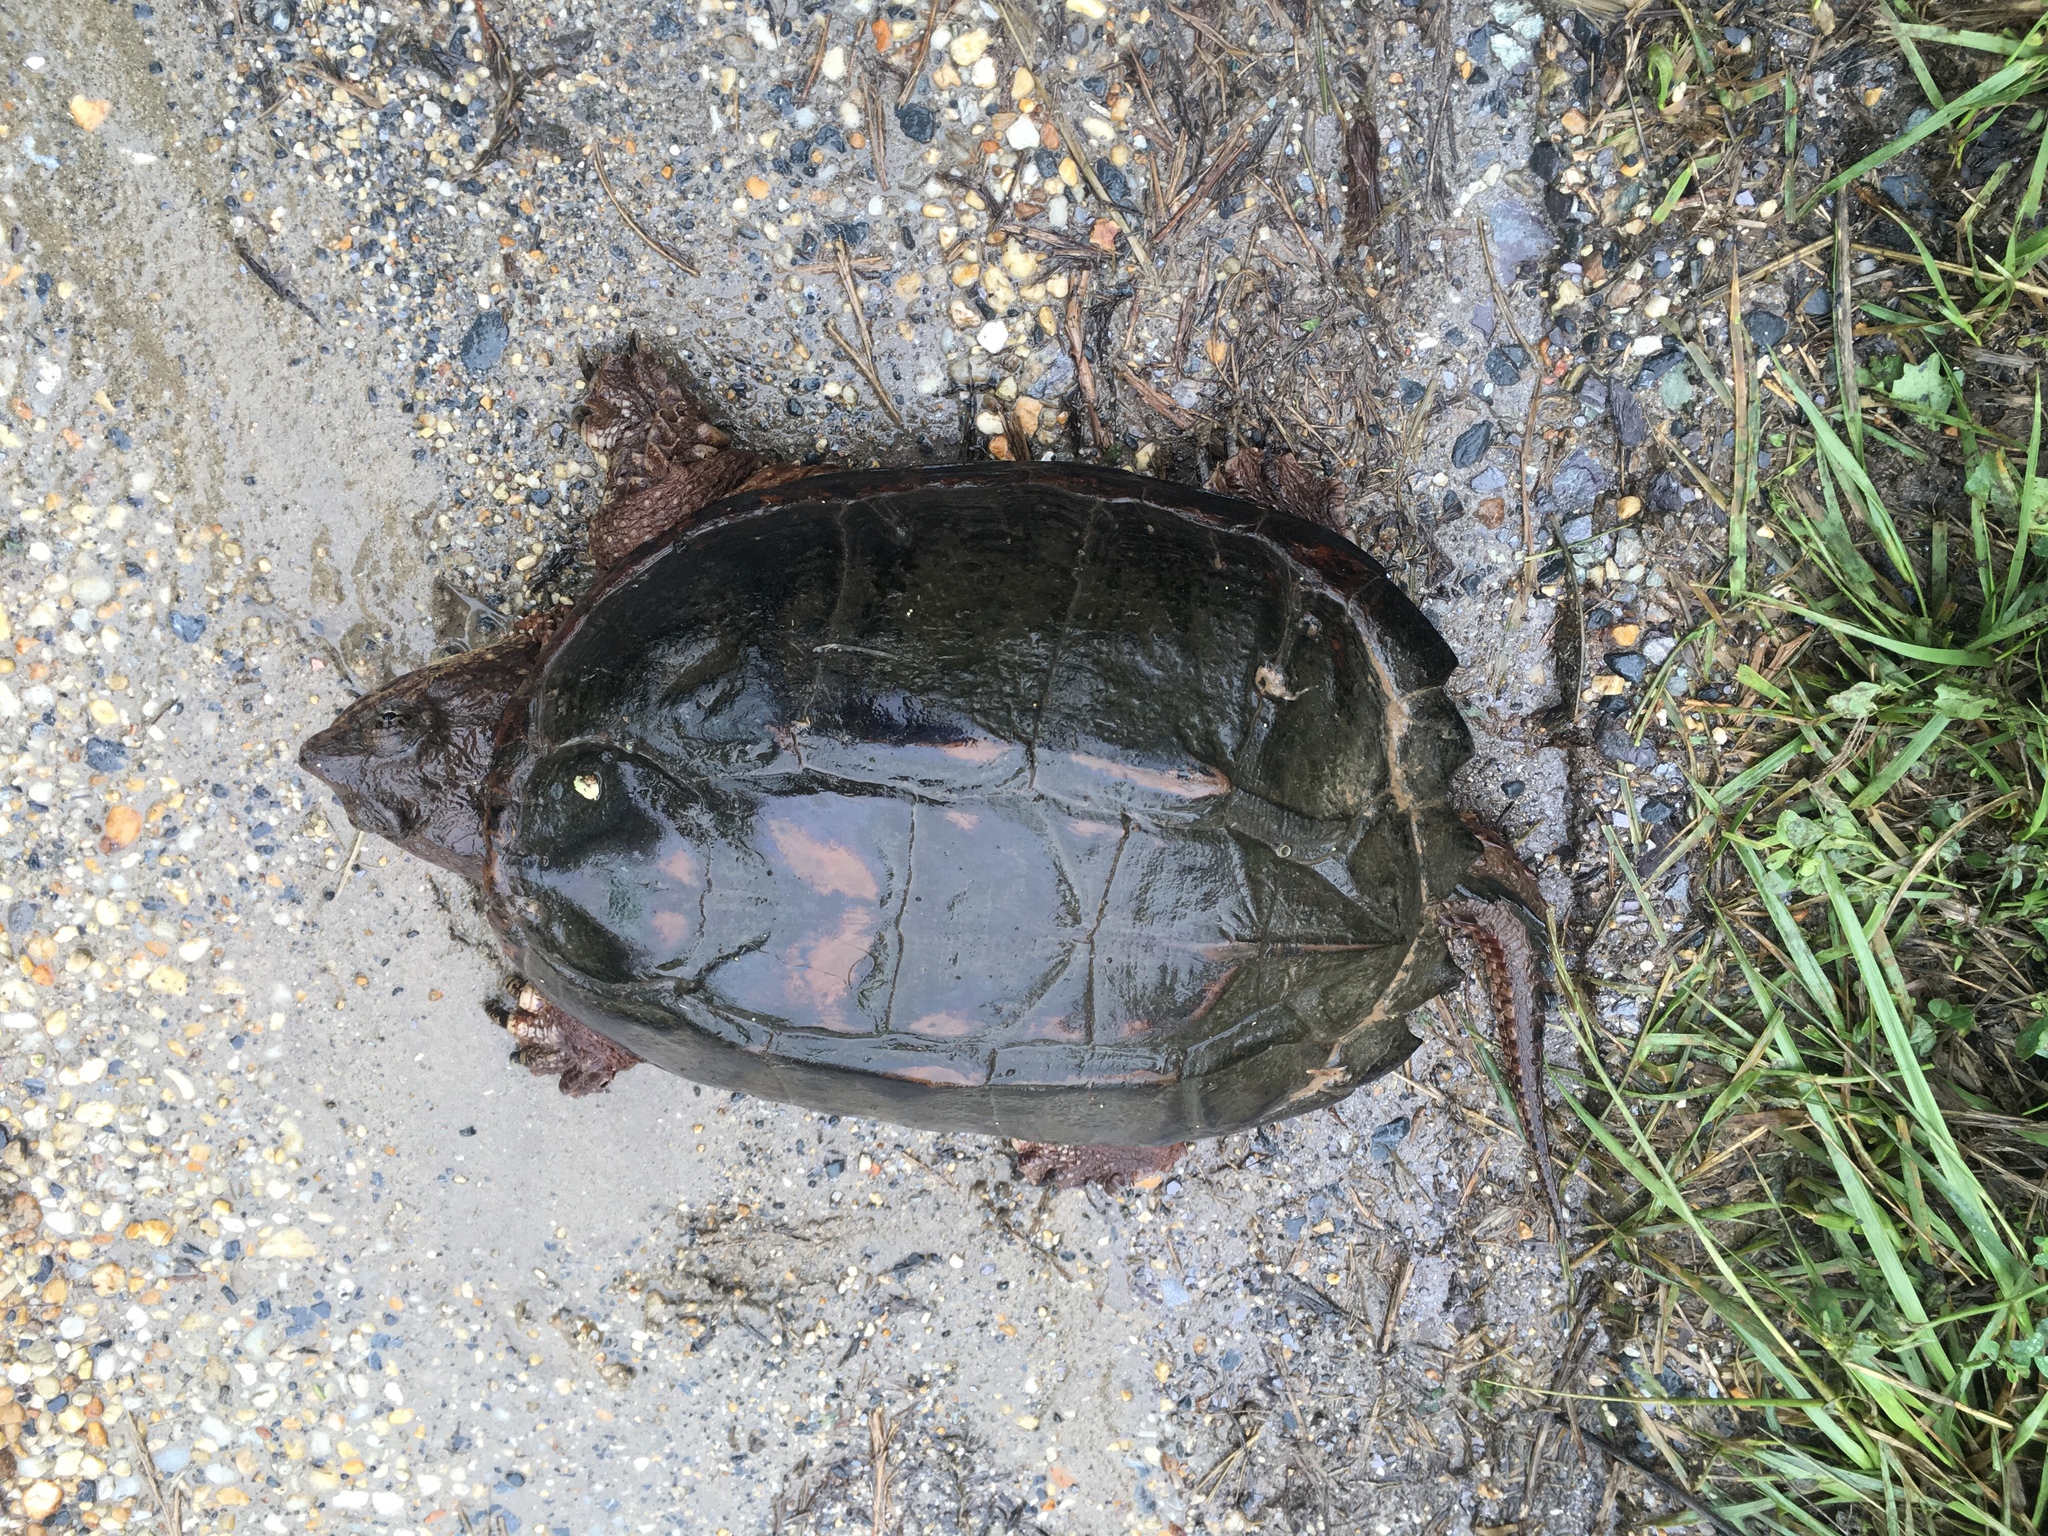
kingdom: Animalia
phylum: Chordata
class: Testudines
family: Chelydridae
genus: Chelydra
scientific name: Chelydra serpentina
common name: Common snapping turtle
